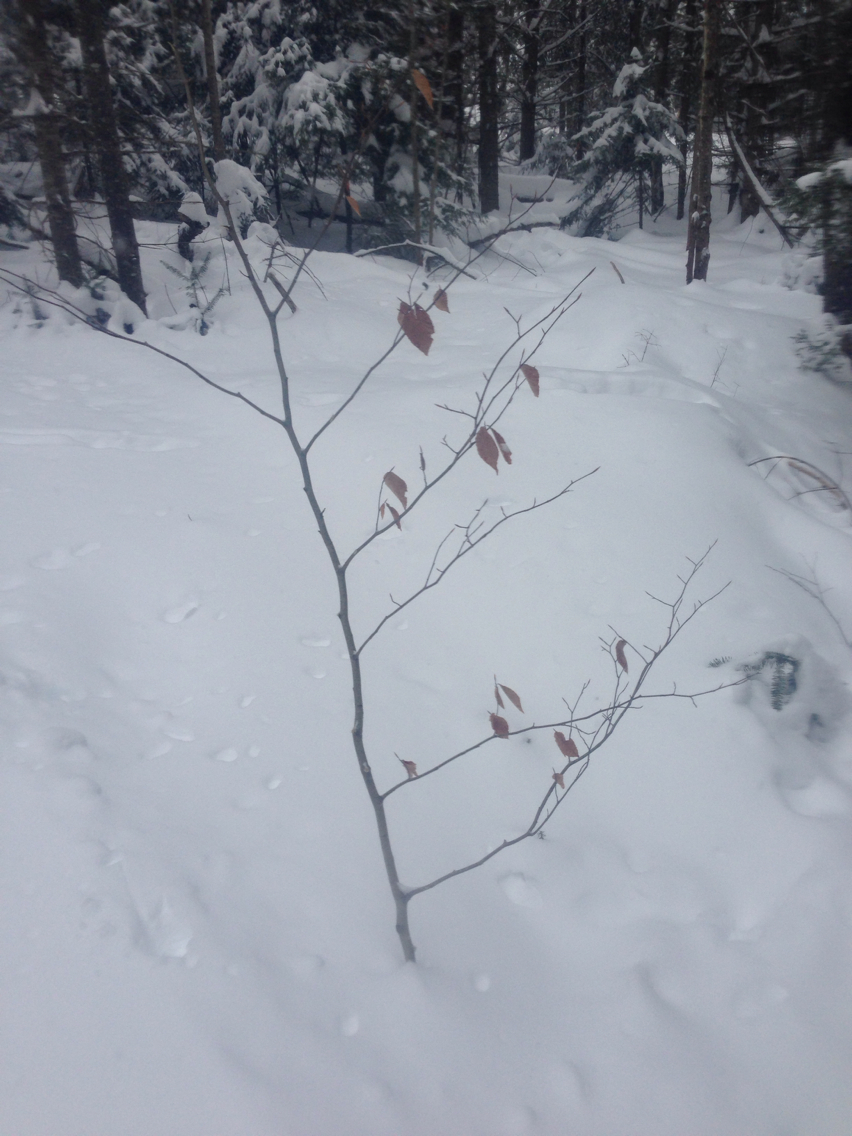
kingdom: Plantae
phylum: Tracheophyta
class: Magnoliopsida
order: Fagales
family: Fagaceae
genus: Fagus
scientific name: Fagus grandifolia
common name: American beech
